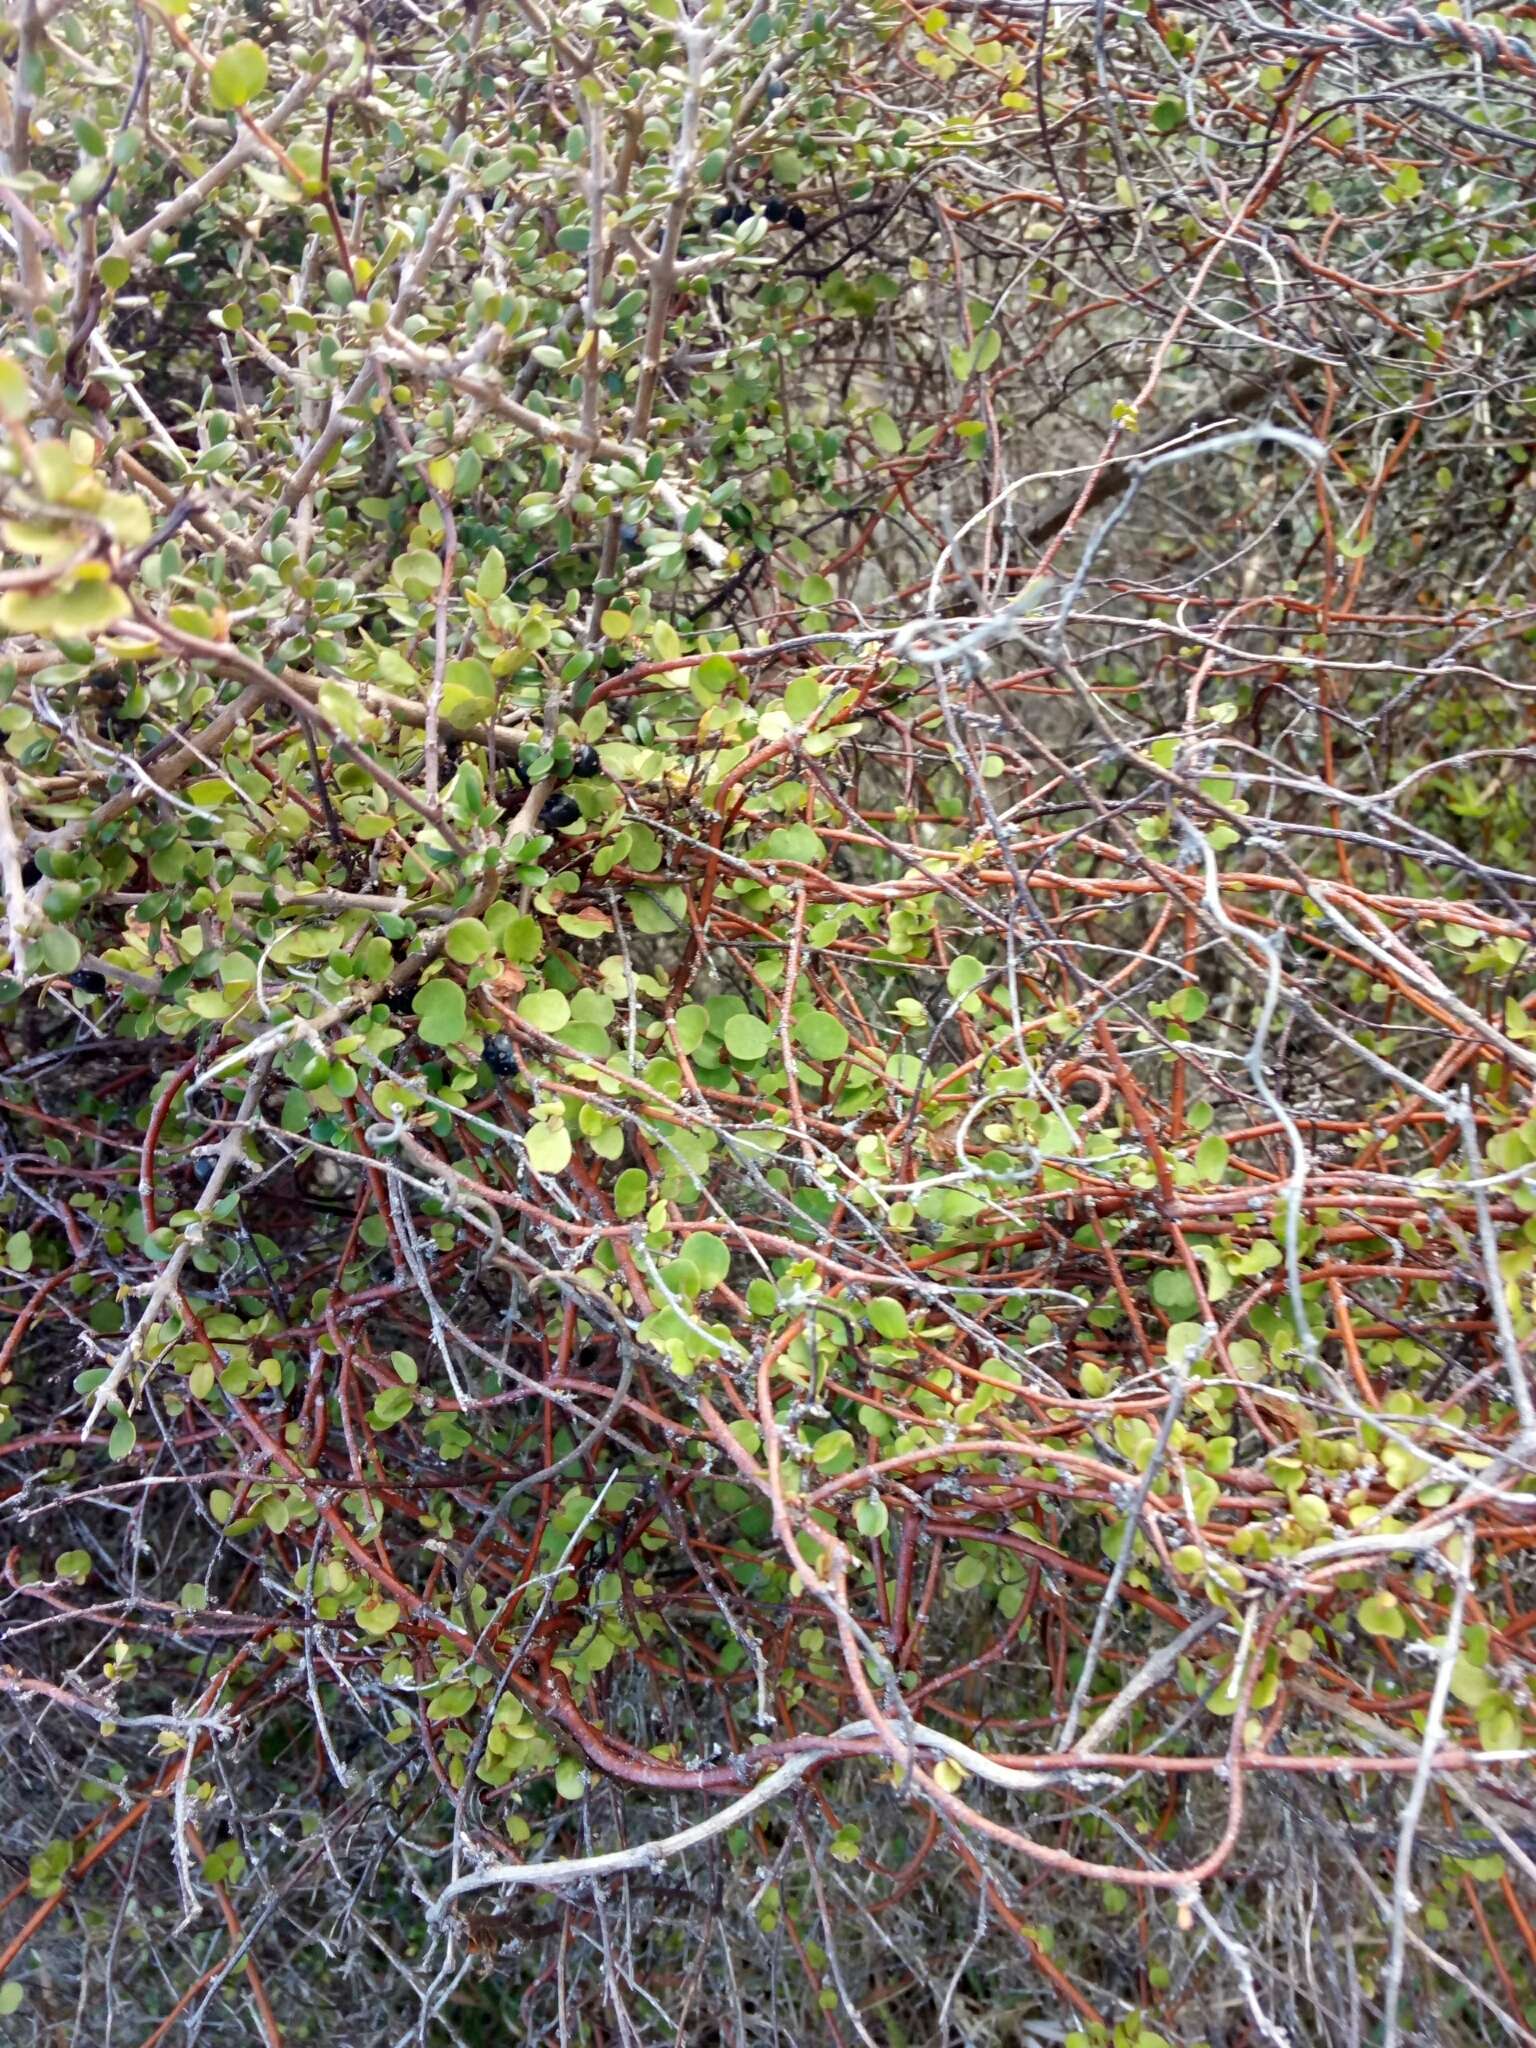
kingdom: Plantae
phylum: Tracheophyta
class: Magnoliopsida
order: Caryophyllales
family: Polygonaceae
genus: Muehlenbeckia
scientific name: Muehlenbeckia complexa
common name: Wireplant
